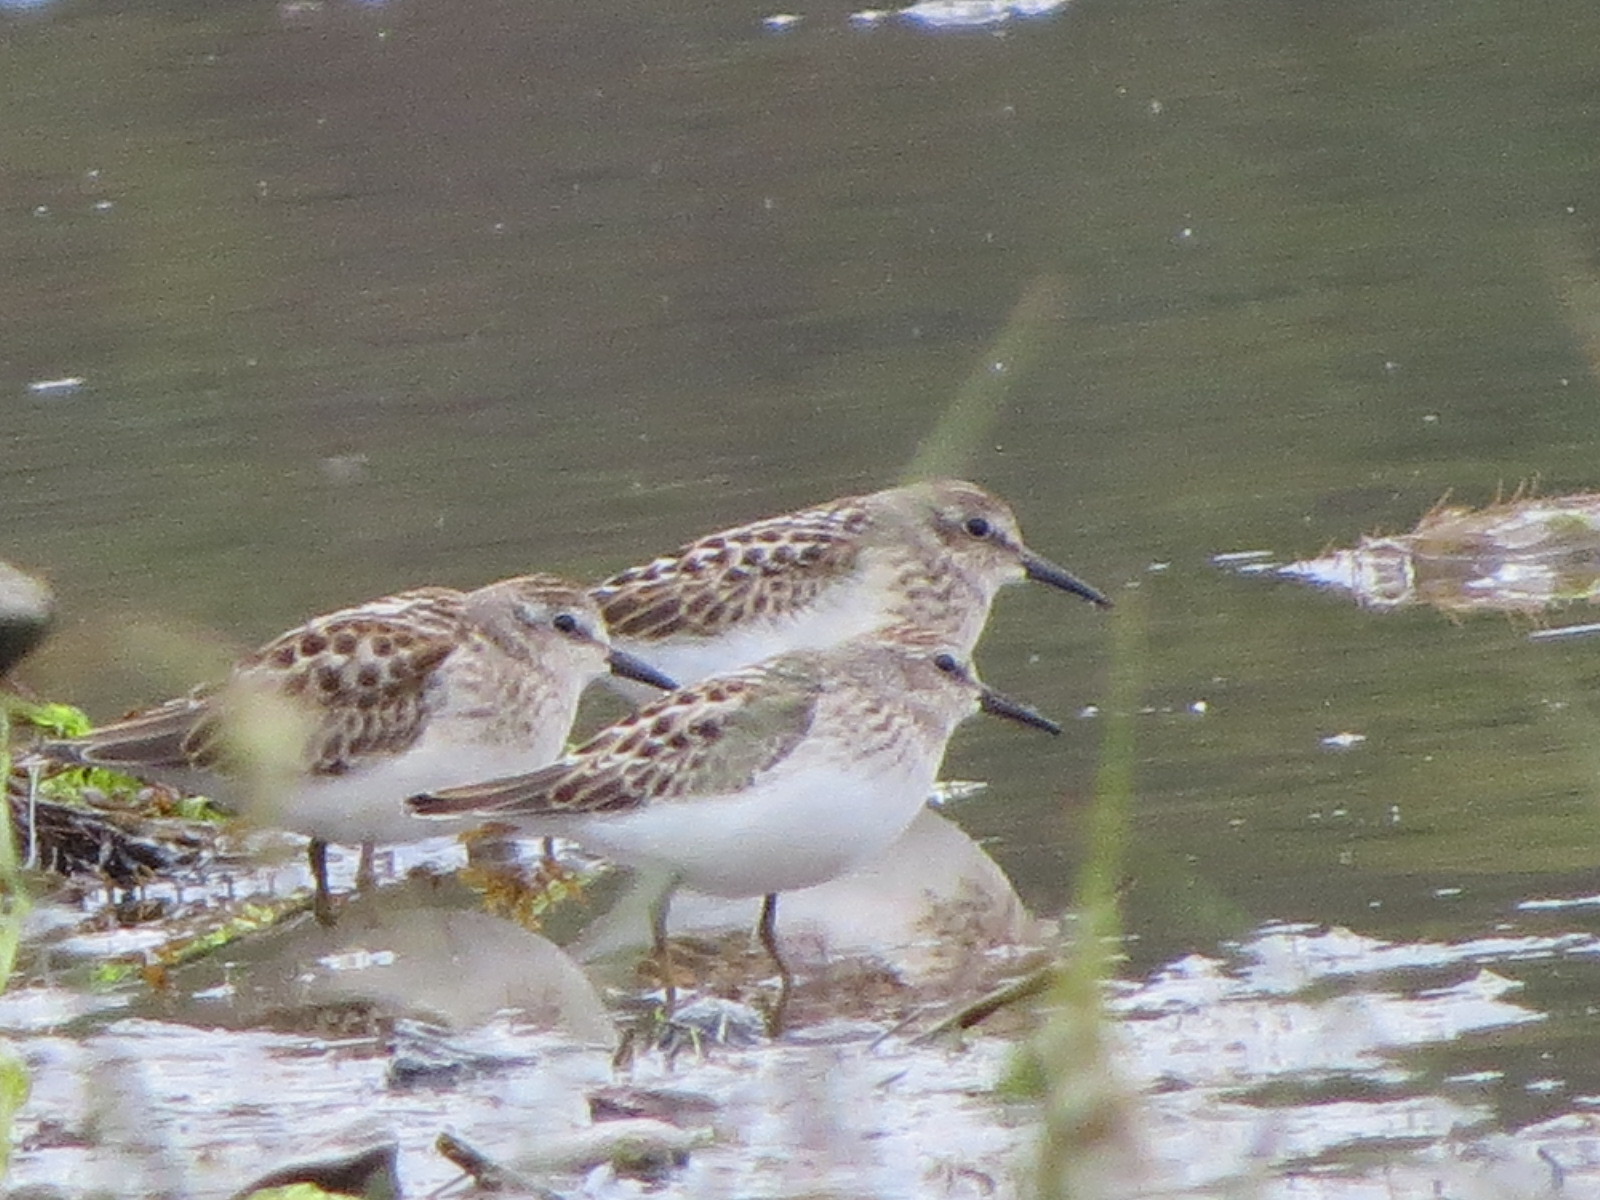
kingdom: Animalia
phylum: Chordata
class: Aves
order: Charadriiformes
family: Scolopacidae
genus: Calidris
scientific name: Calidris minutilla
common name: Least sandpiper
